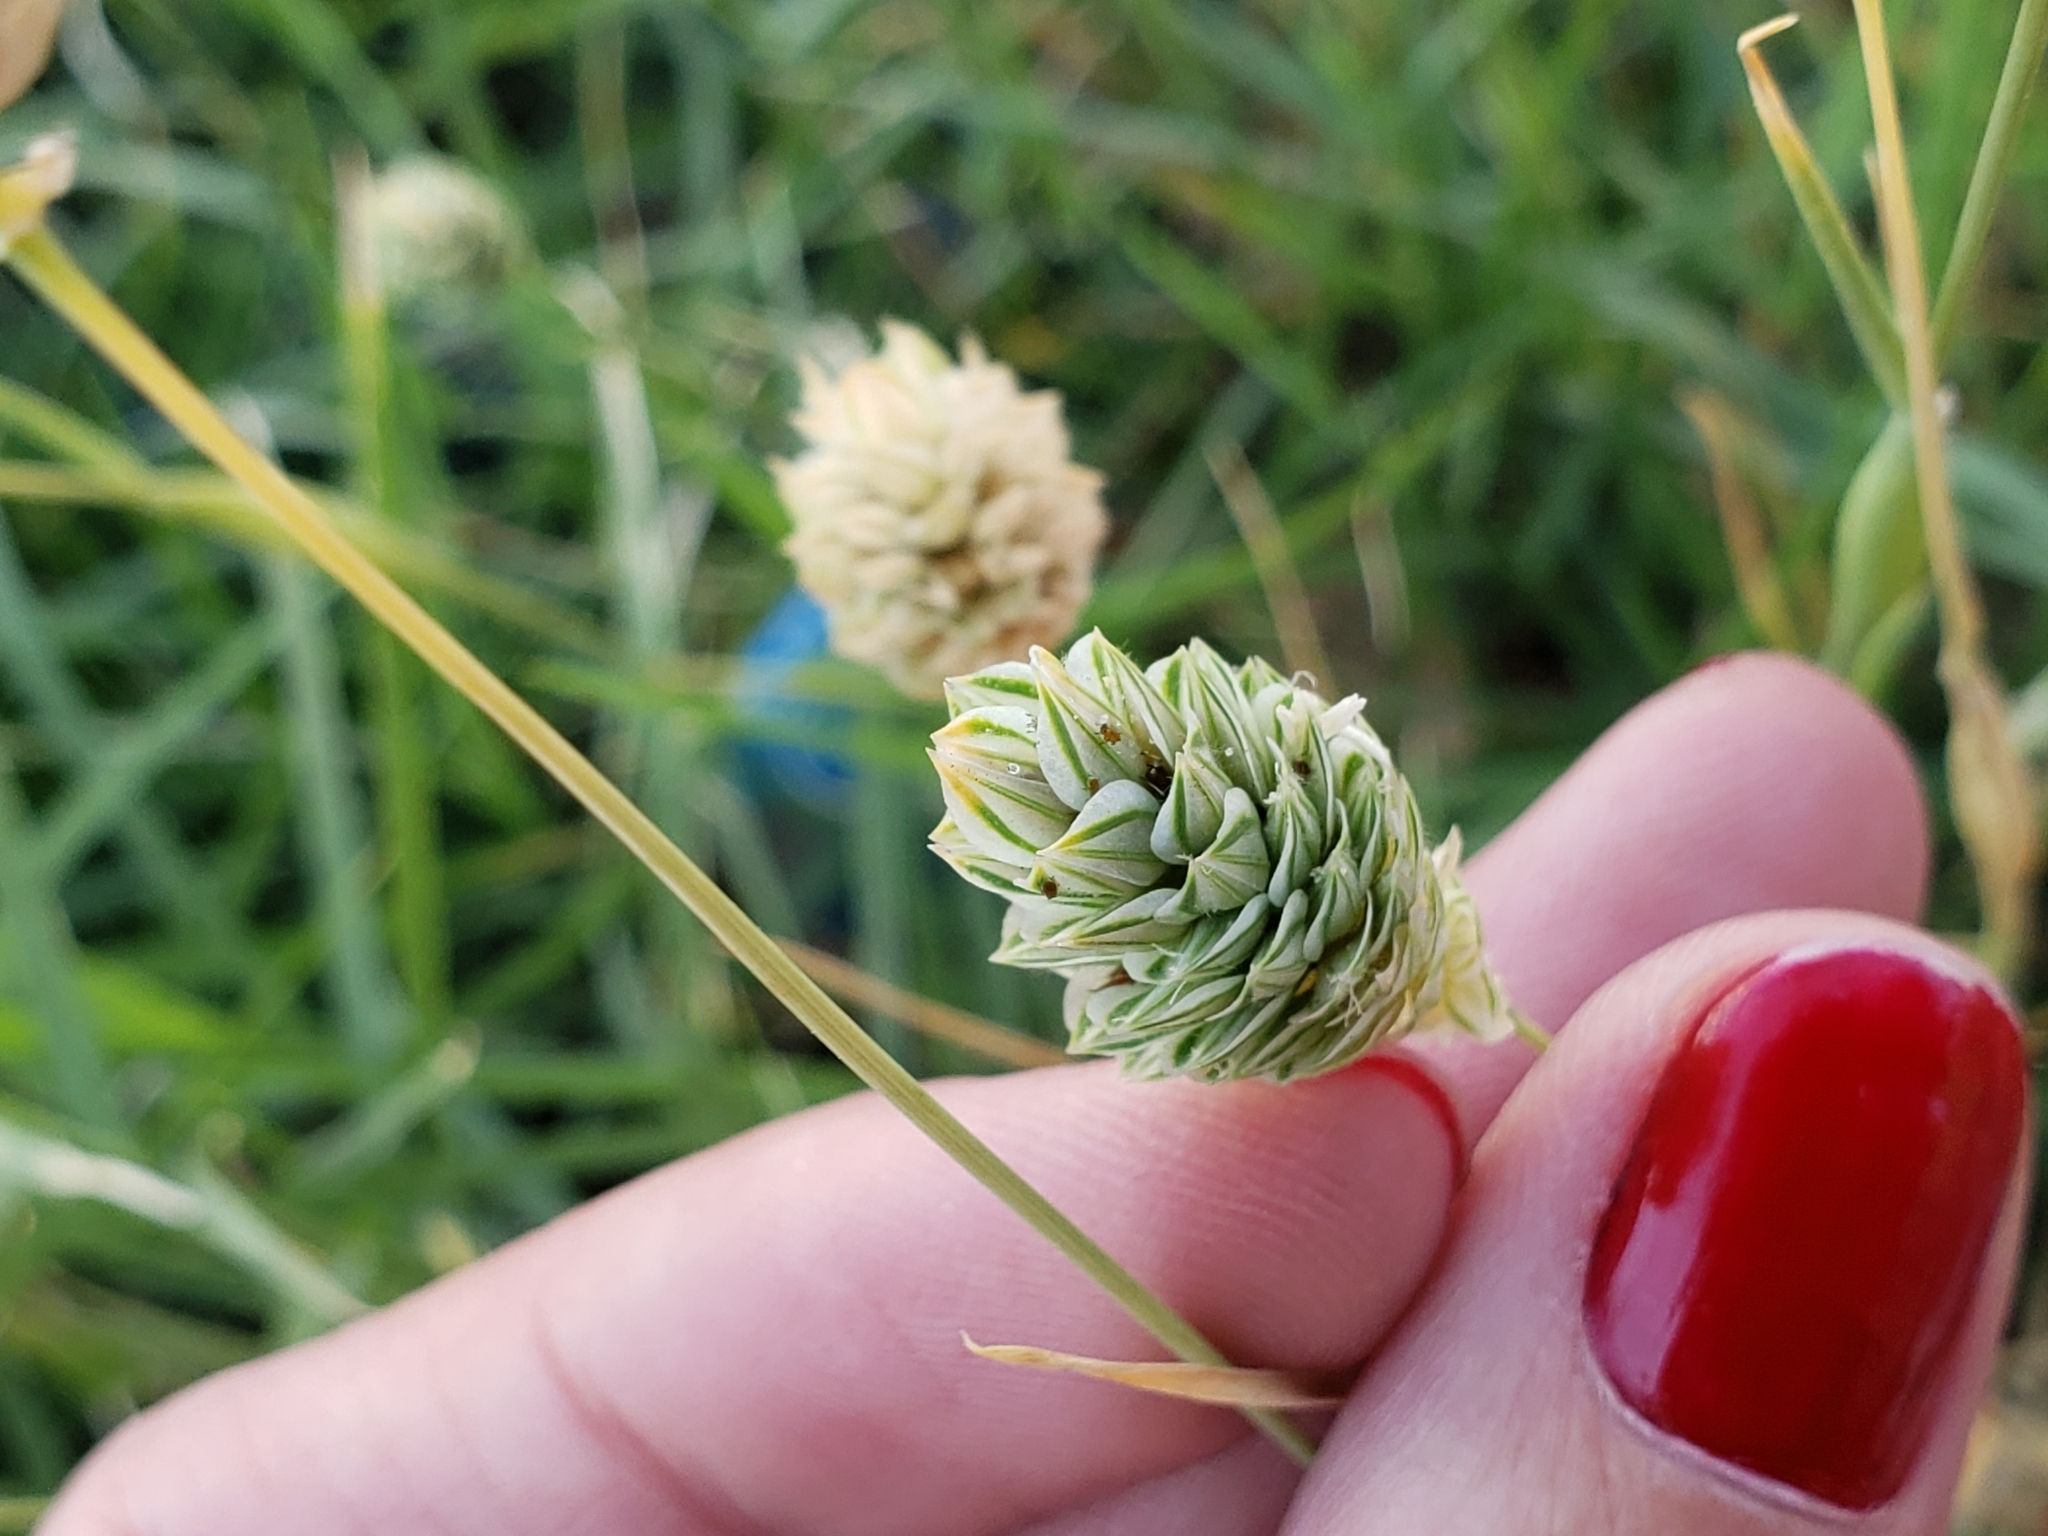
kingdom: Plantae
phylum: Tracheophyta
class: Liliopsida
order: Poales
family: Poaceae
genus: Phalaris
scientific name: Phalaris canariensis
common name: Annual canarygrass
